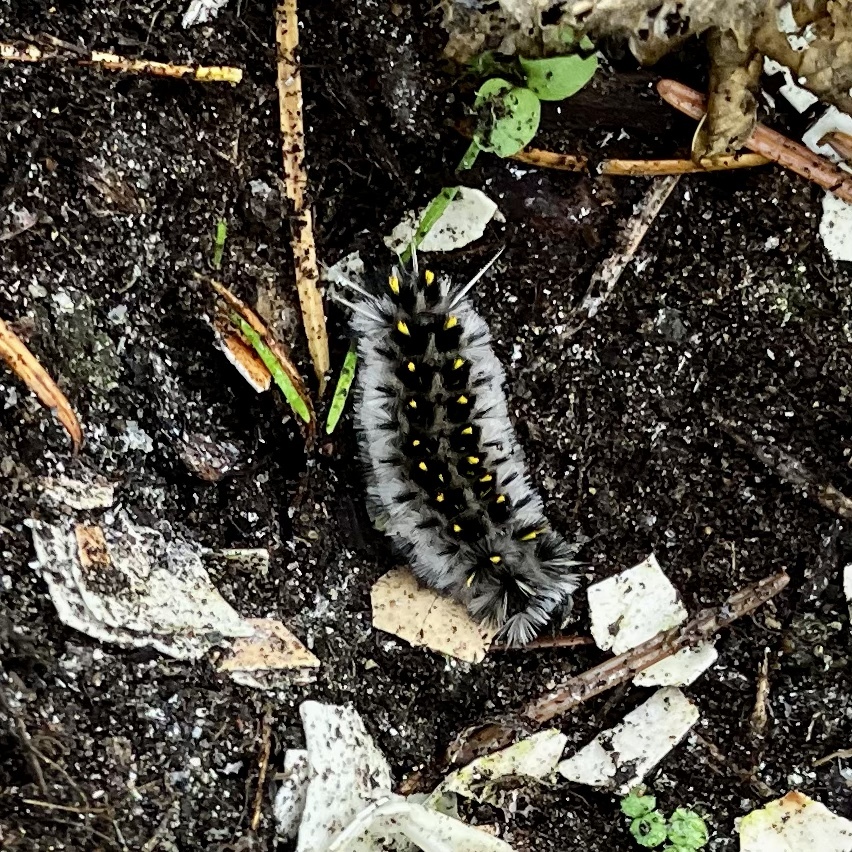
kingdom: Animalia
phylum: Arthropoda
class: Insecta
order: Lepidoptera
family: Erebidae
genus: Lophocampa
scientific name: Lophocampa roseata
